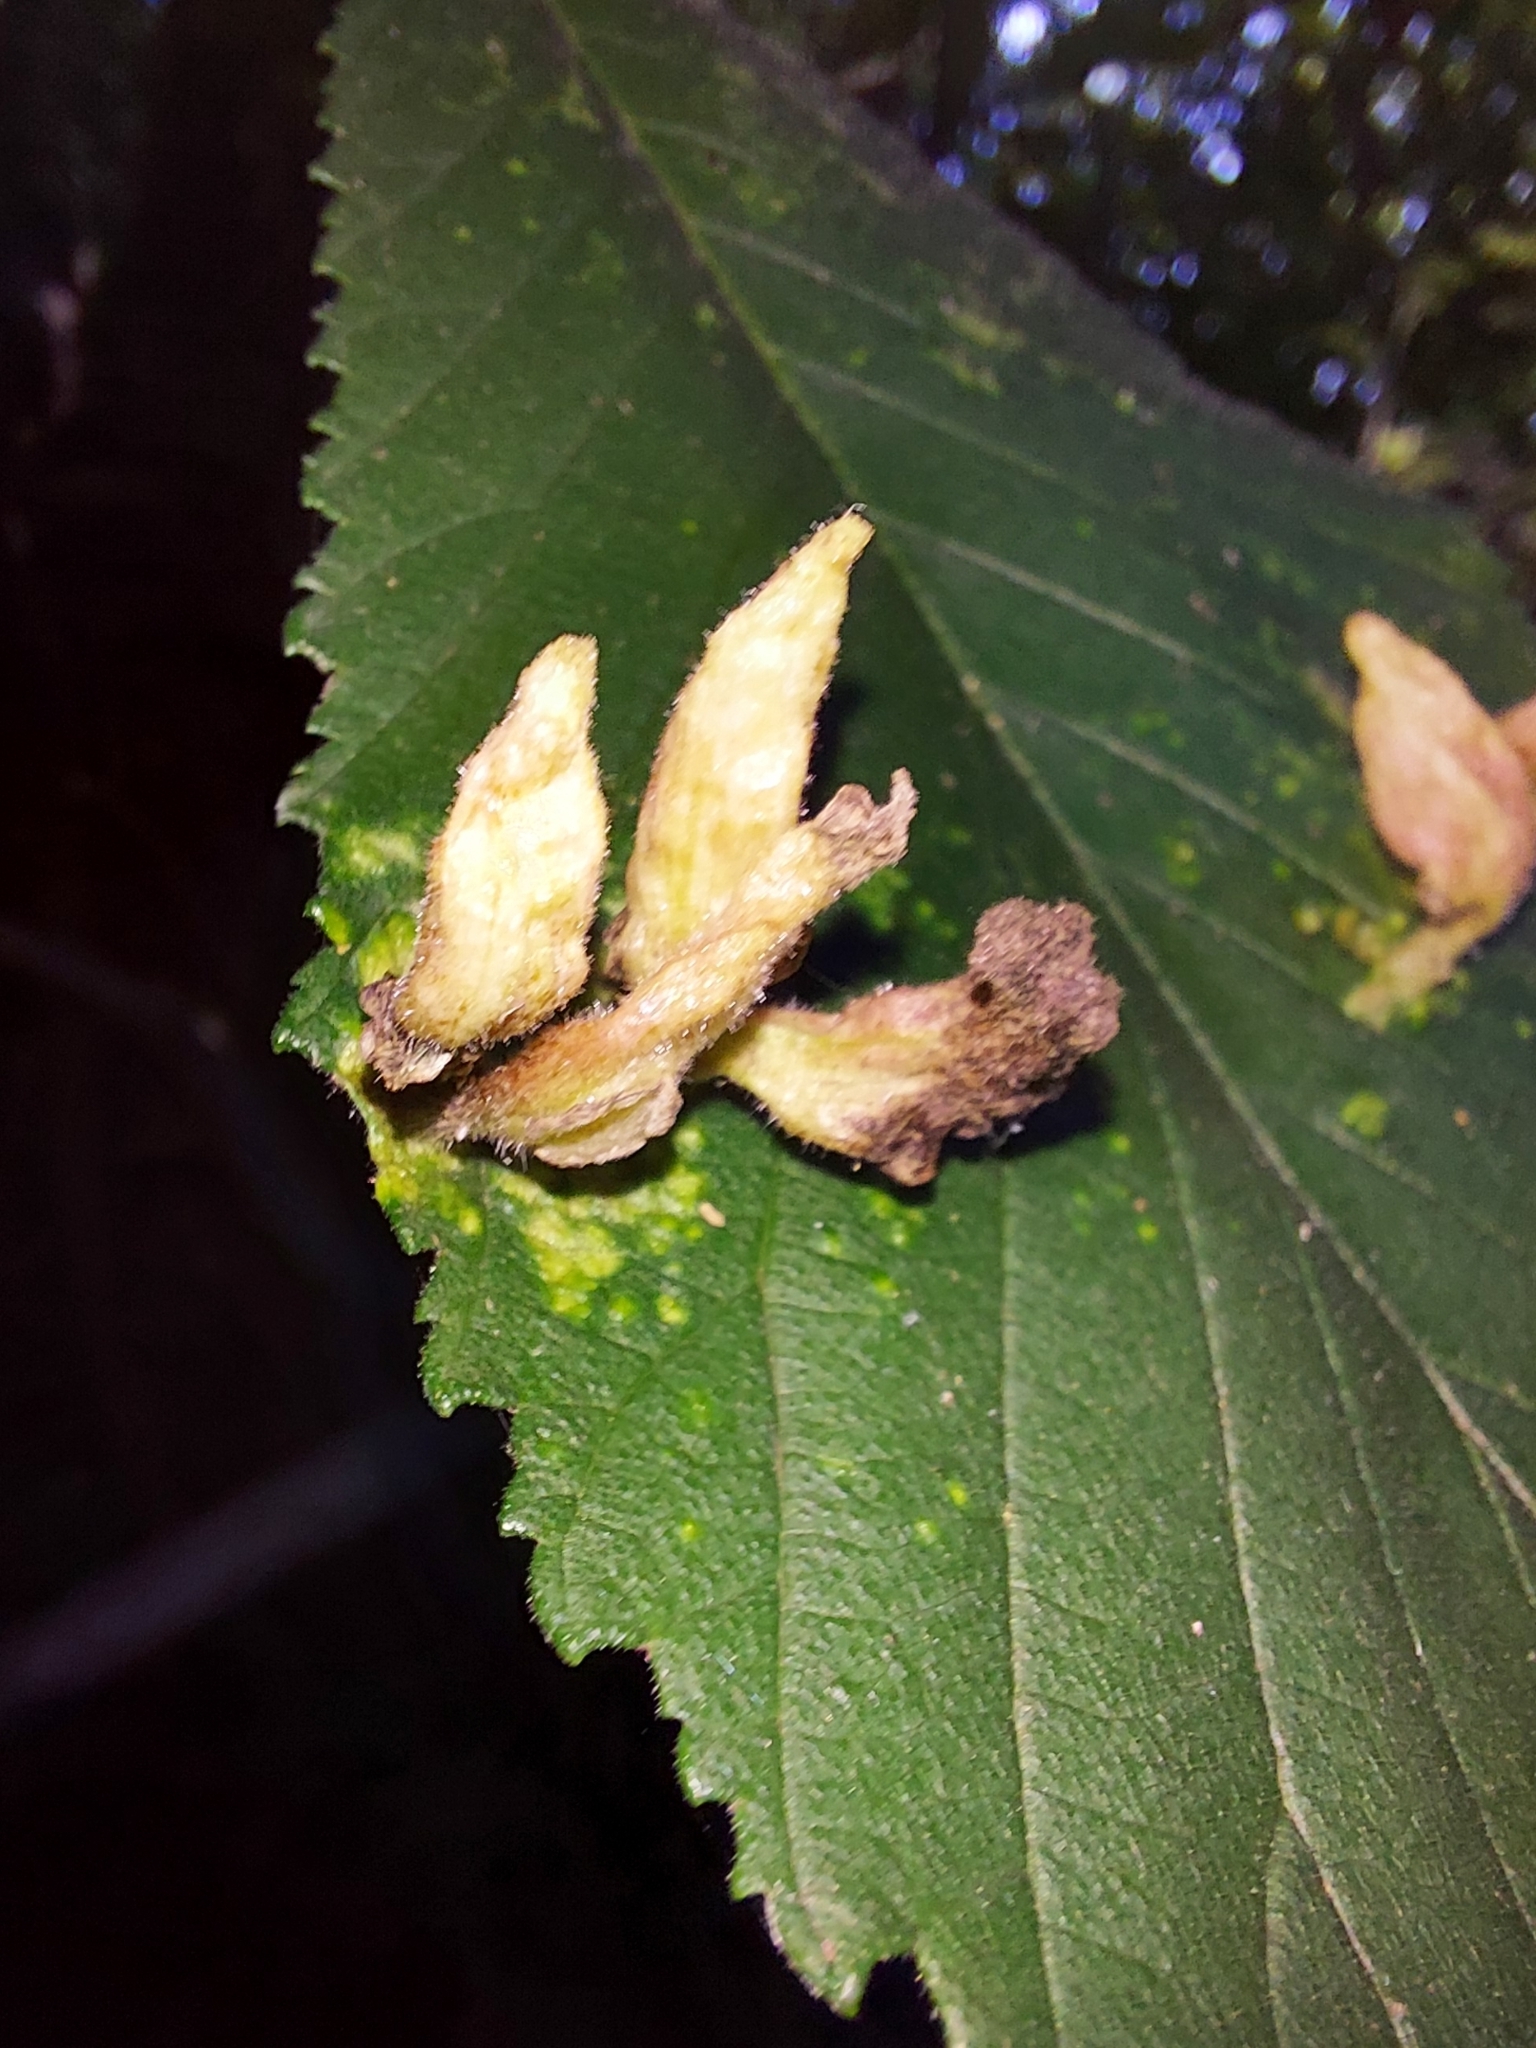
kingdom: Animalia
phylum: Arthropoda
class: Insecta
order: Hemiptera
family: Aphididae
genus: Tetraneura
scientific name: Tetraneura nigriabdominalis
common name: Aphid
